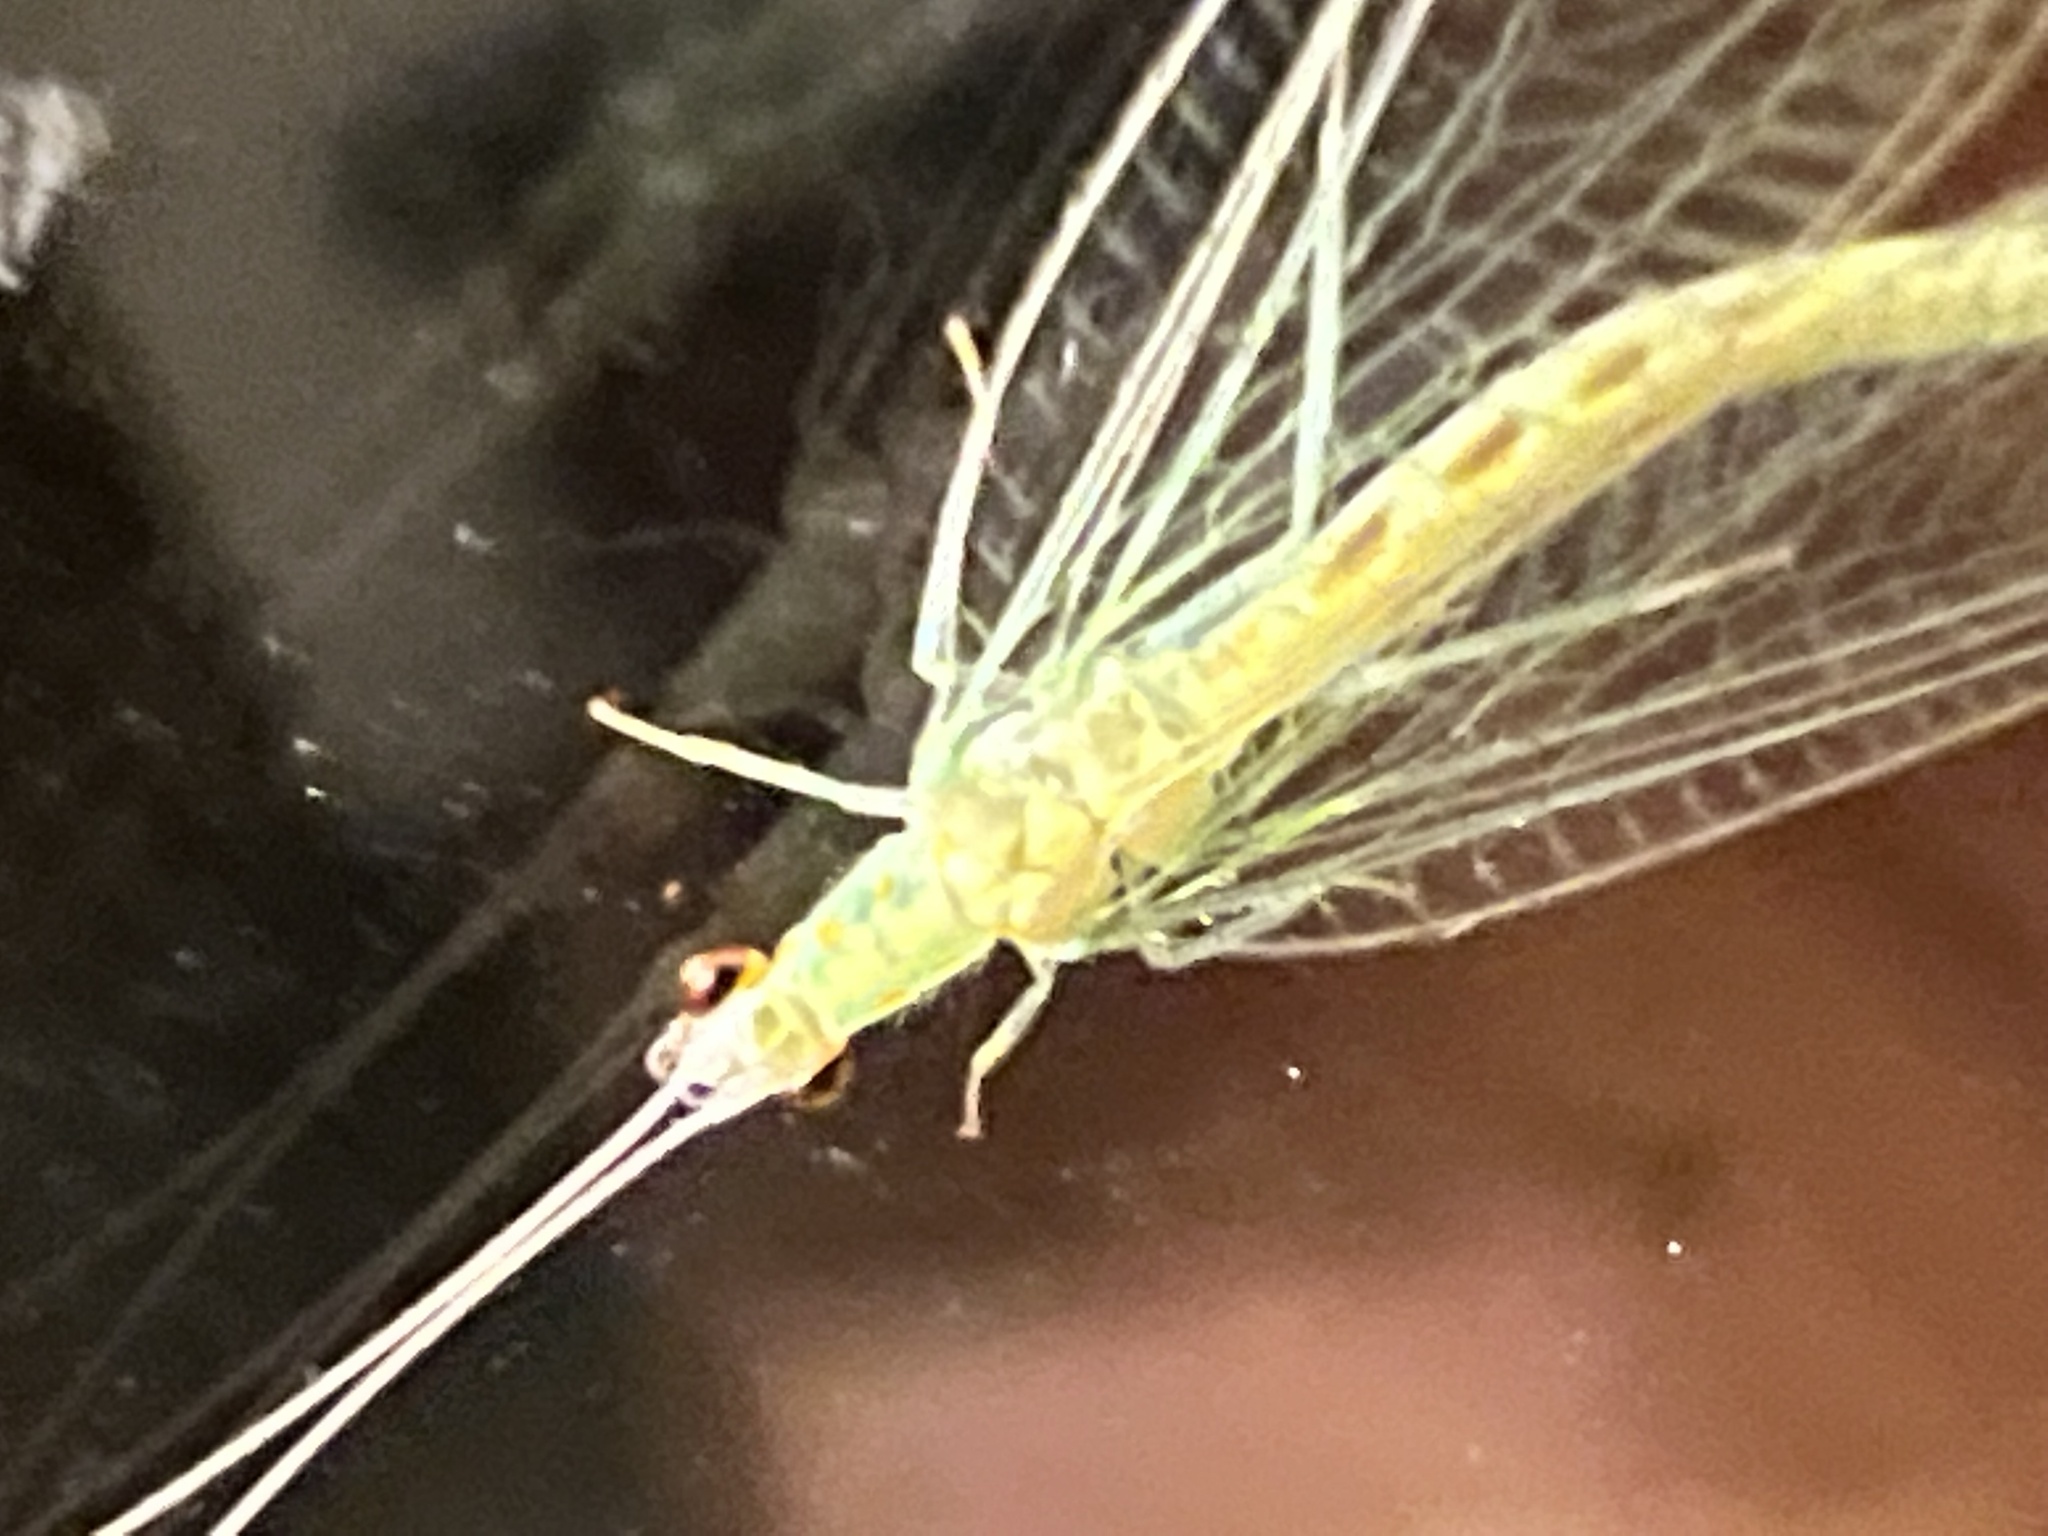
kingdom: Animalia
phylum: Arthropoda
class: Insecta
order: Neuroptera
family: Chrysopidae
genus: Chrysopa
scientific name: Chrysopa quadripunctata
